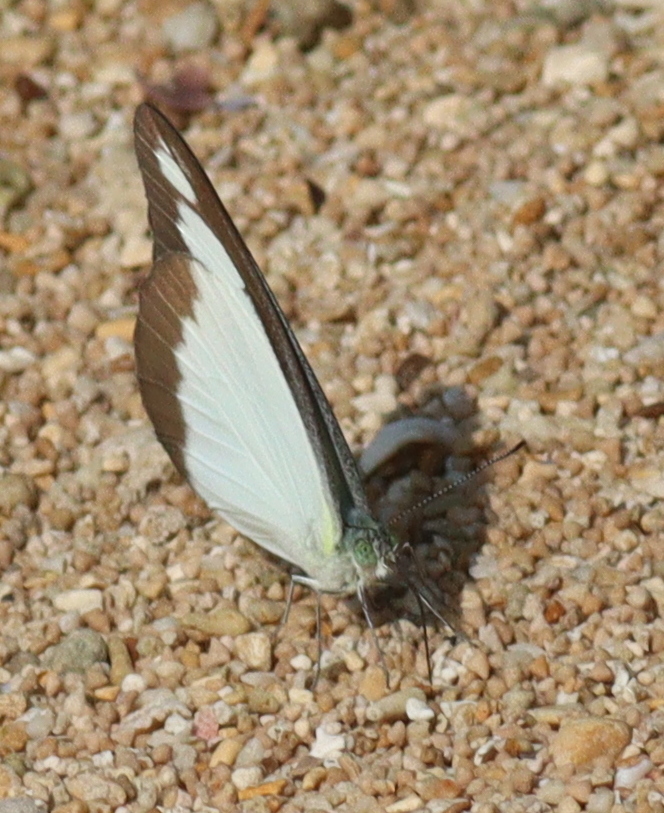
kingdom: Animalia
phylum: Arthropoda
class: Insecta
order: Lepidoptera
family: Pieridae
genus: Appias
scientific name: Appias lyncida
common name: Chocolate albatross
